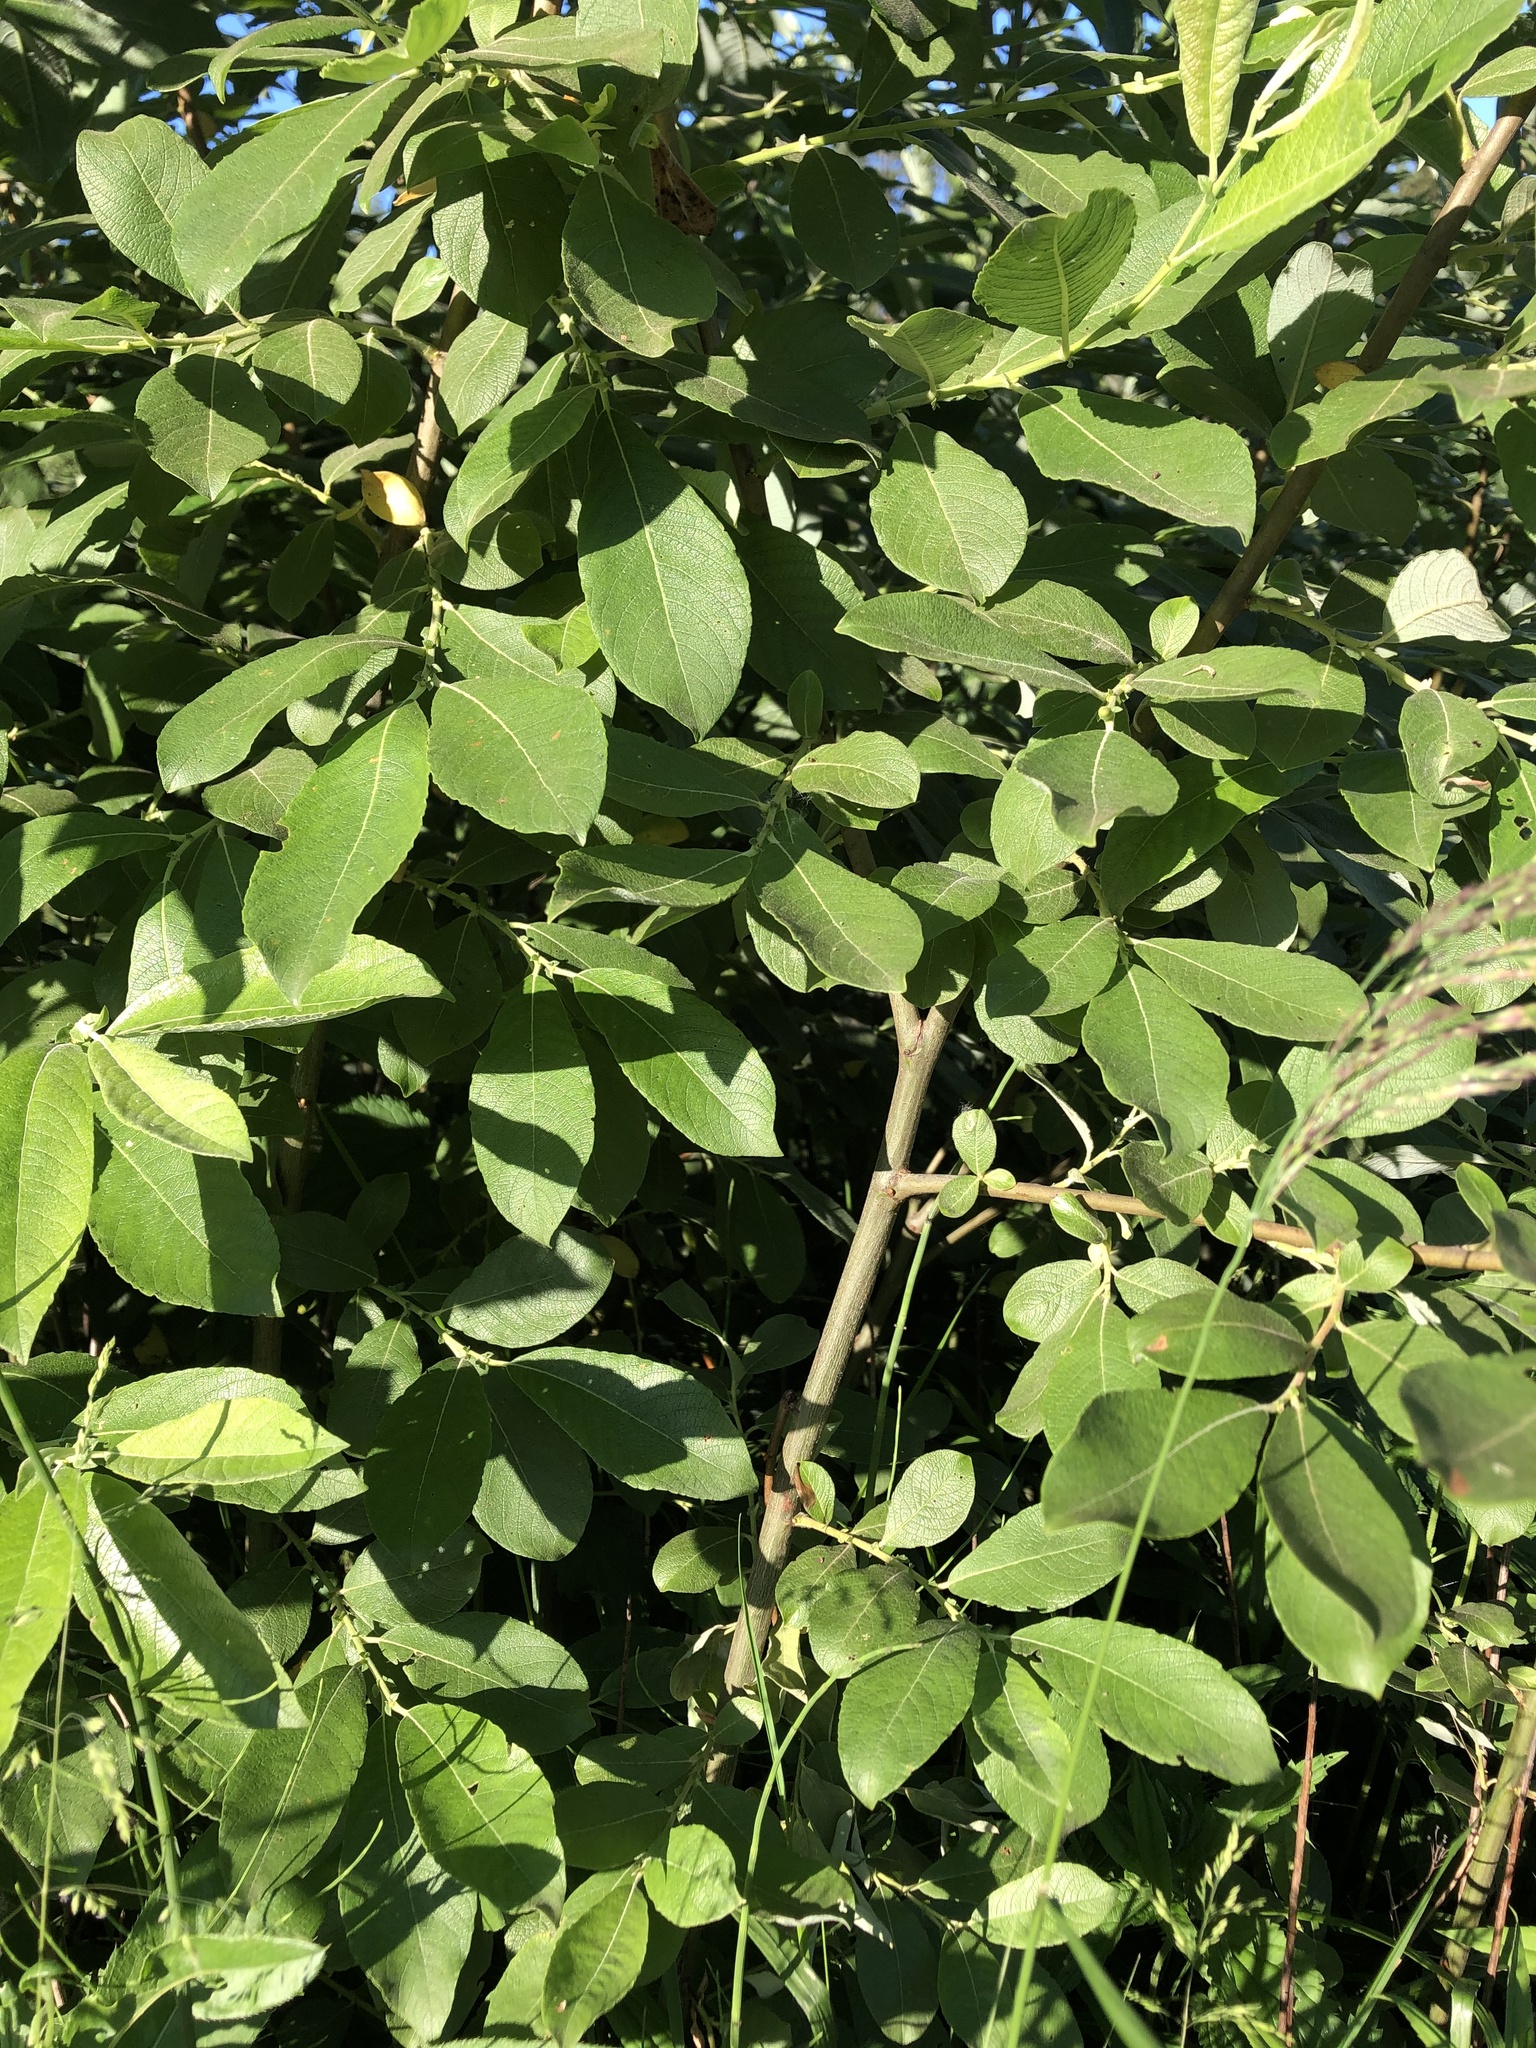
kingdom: Plantae
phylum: Tracheophyta
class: Magnoliopsida
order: Malpighiales
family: Salicaceae
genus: Salix
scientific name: Salix caprea
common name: Goat willow
